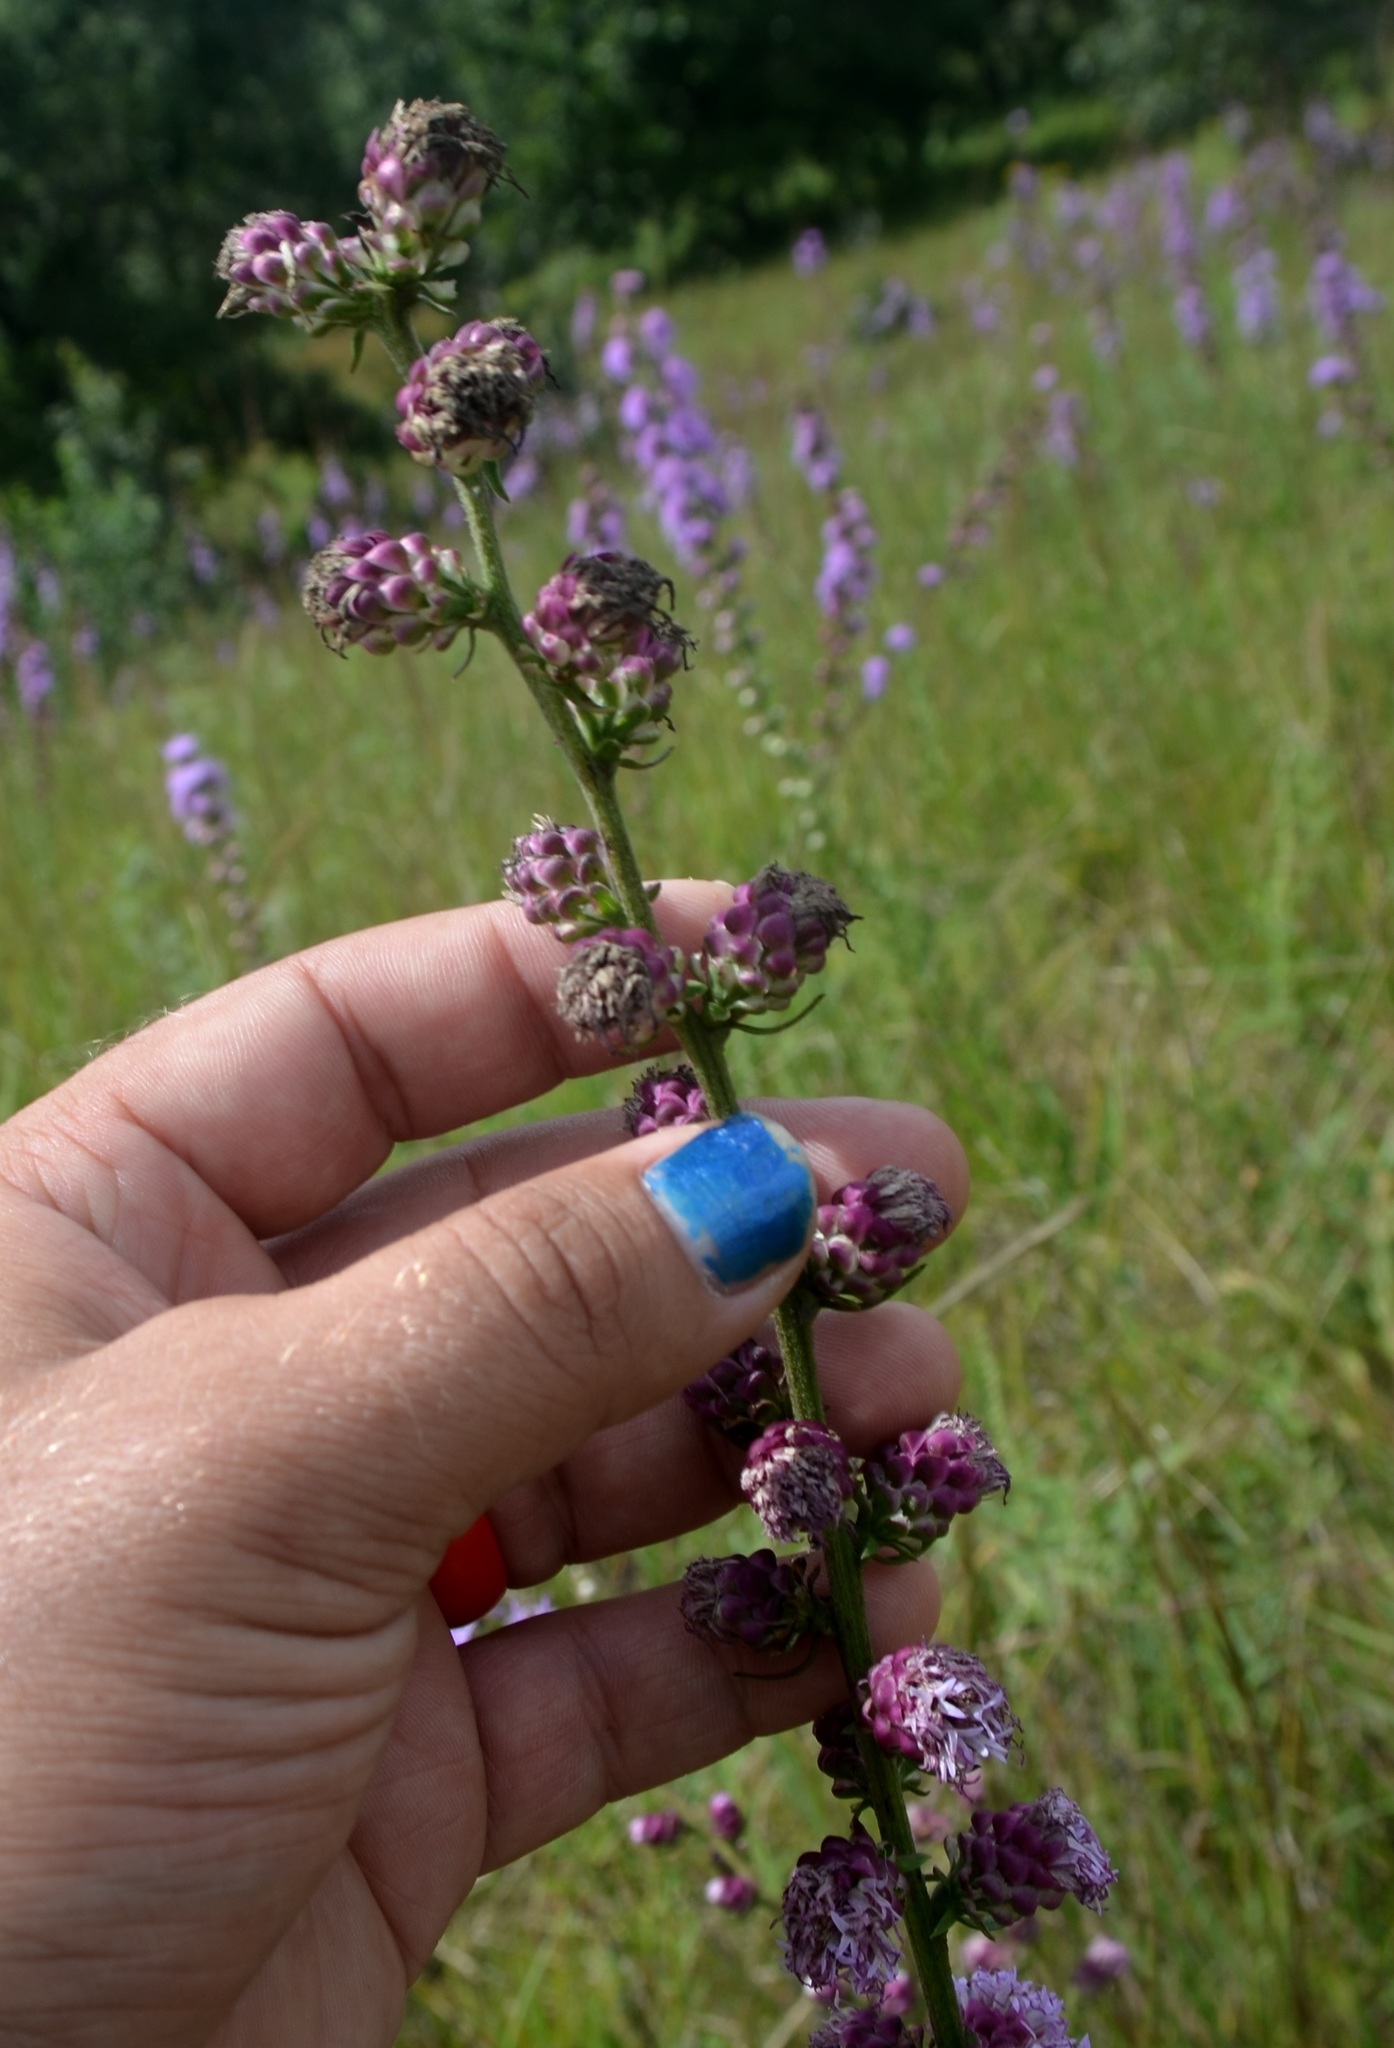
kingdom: Plantae
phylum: Tracheophyta
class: Magnoliopsida
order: Asterales
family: Asteraceae
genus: Liatris
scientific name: Liatris aspera
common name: Lacerate blazing-star
